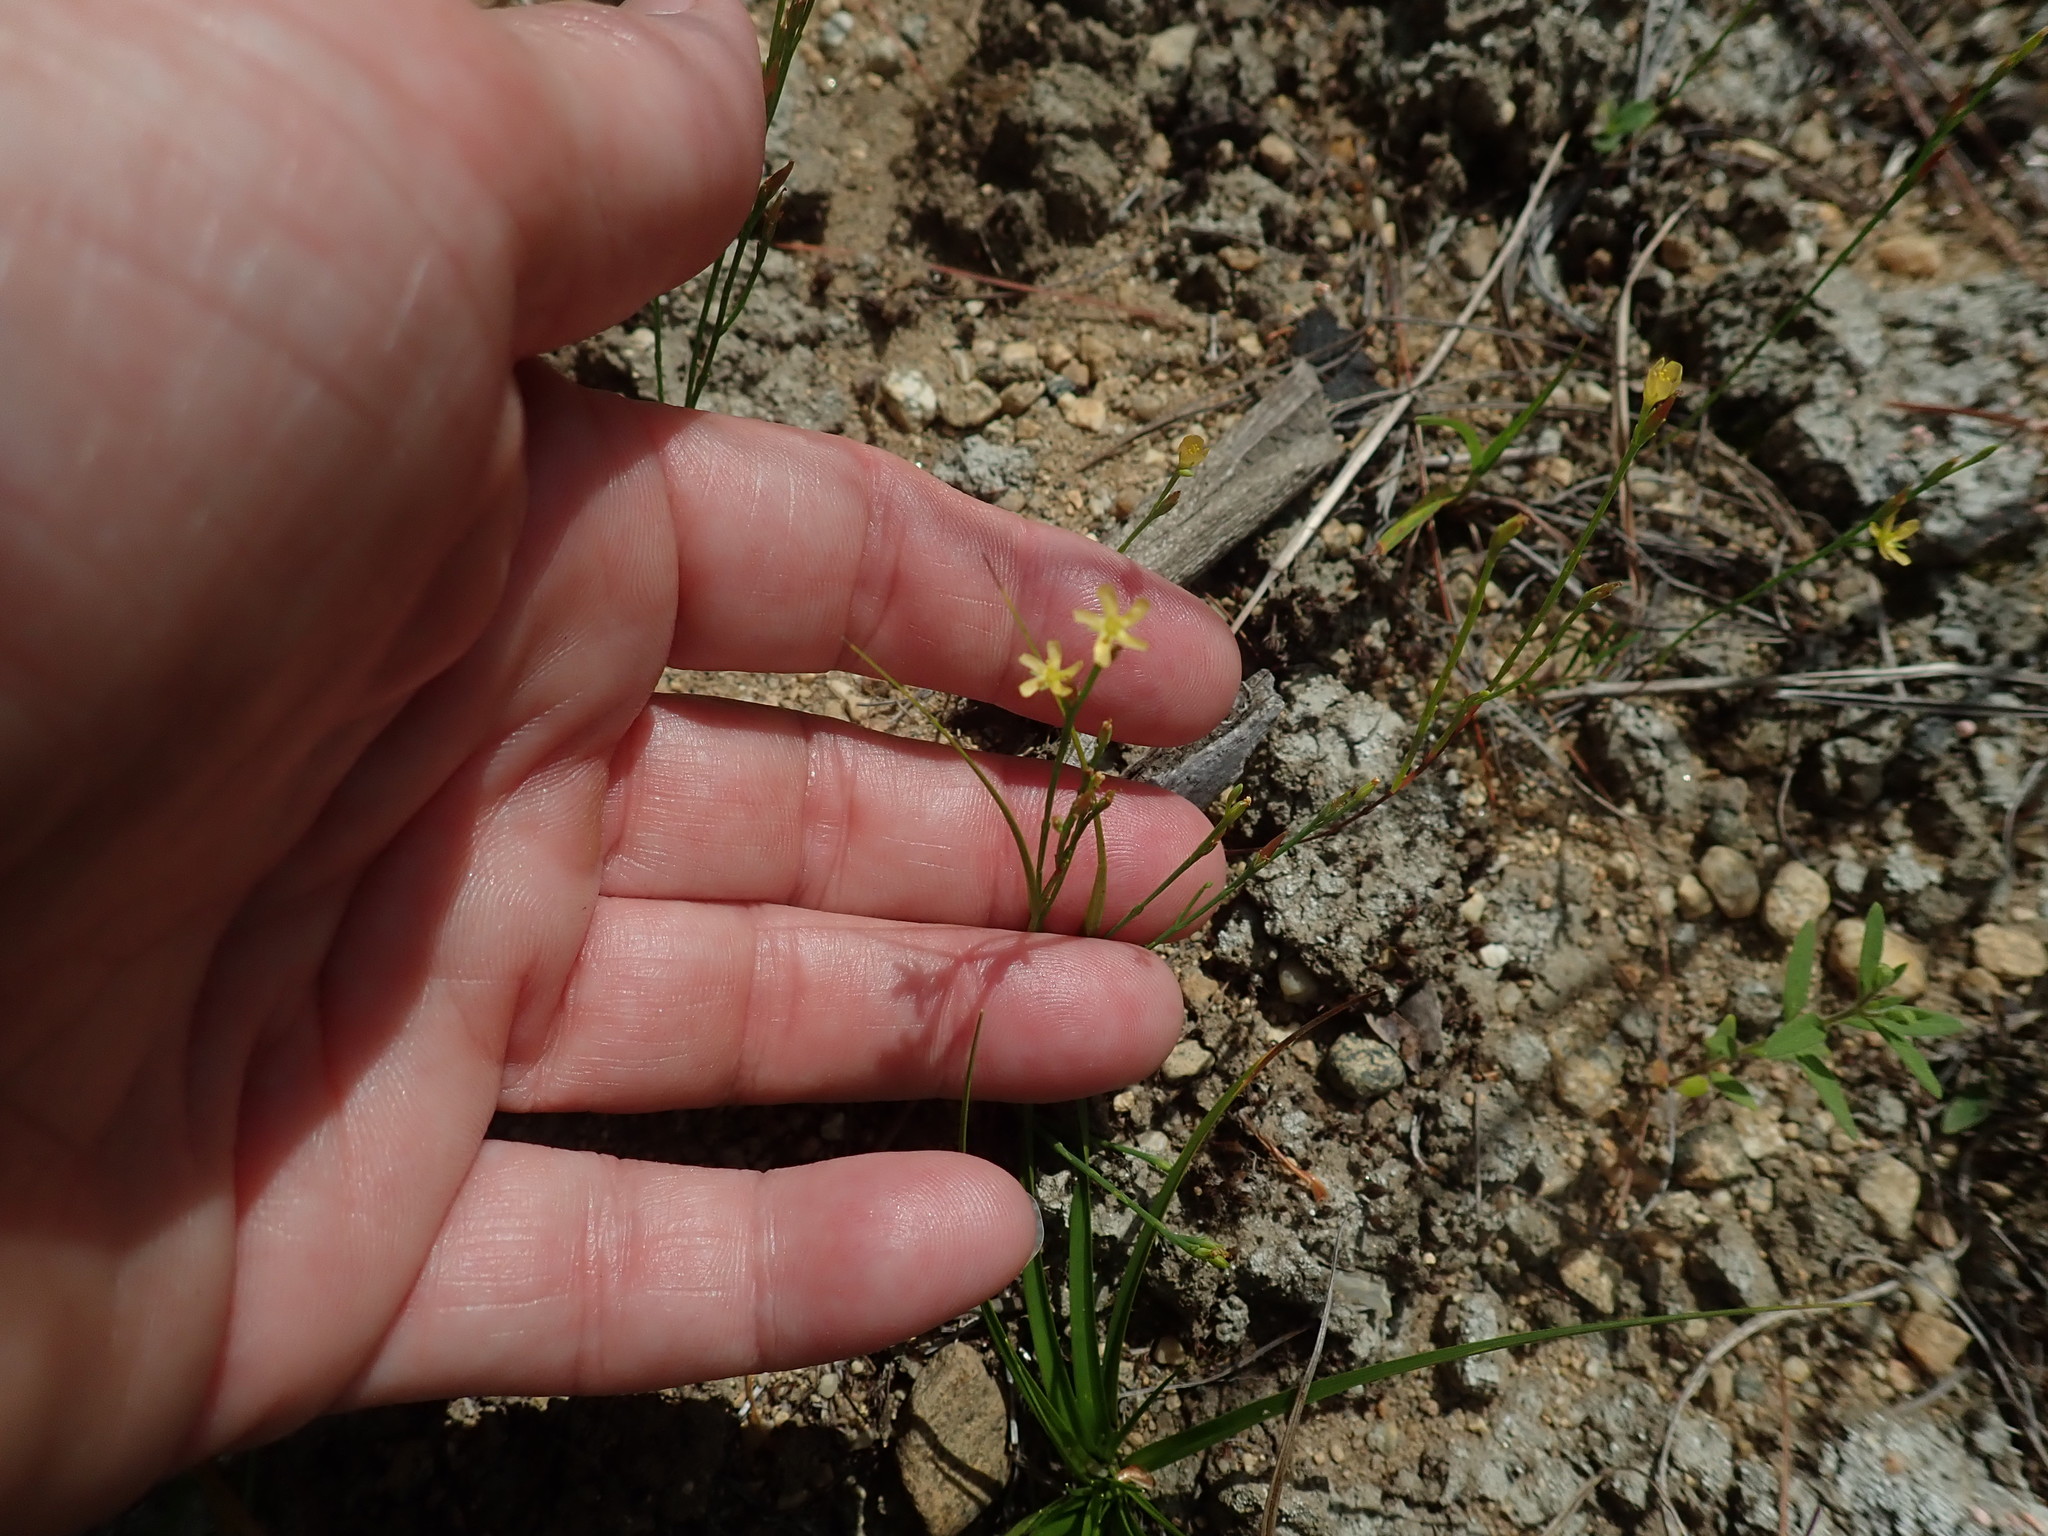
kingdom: Plantae
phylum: Tracheophyta
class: Magnoliopsida
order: Malpighiales
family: Hypericaceae
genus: Hypericum
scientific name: Hypericum gentianoides
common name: Gentian-leaved st. john's-wort
